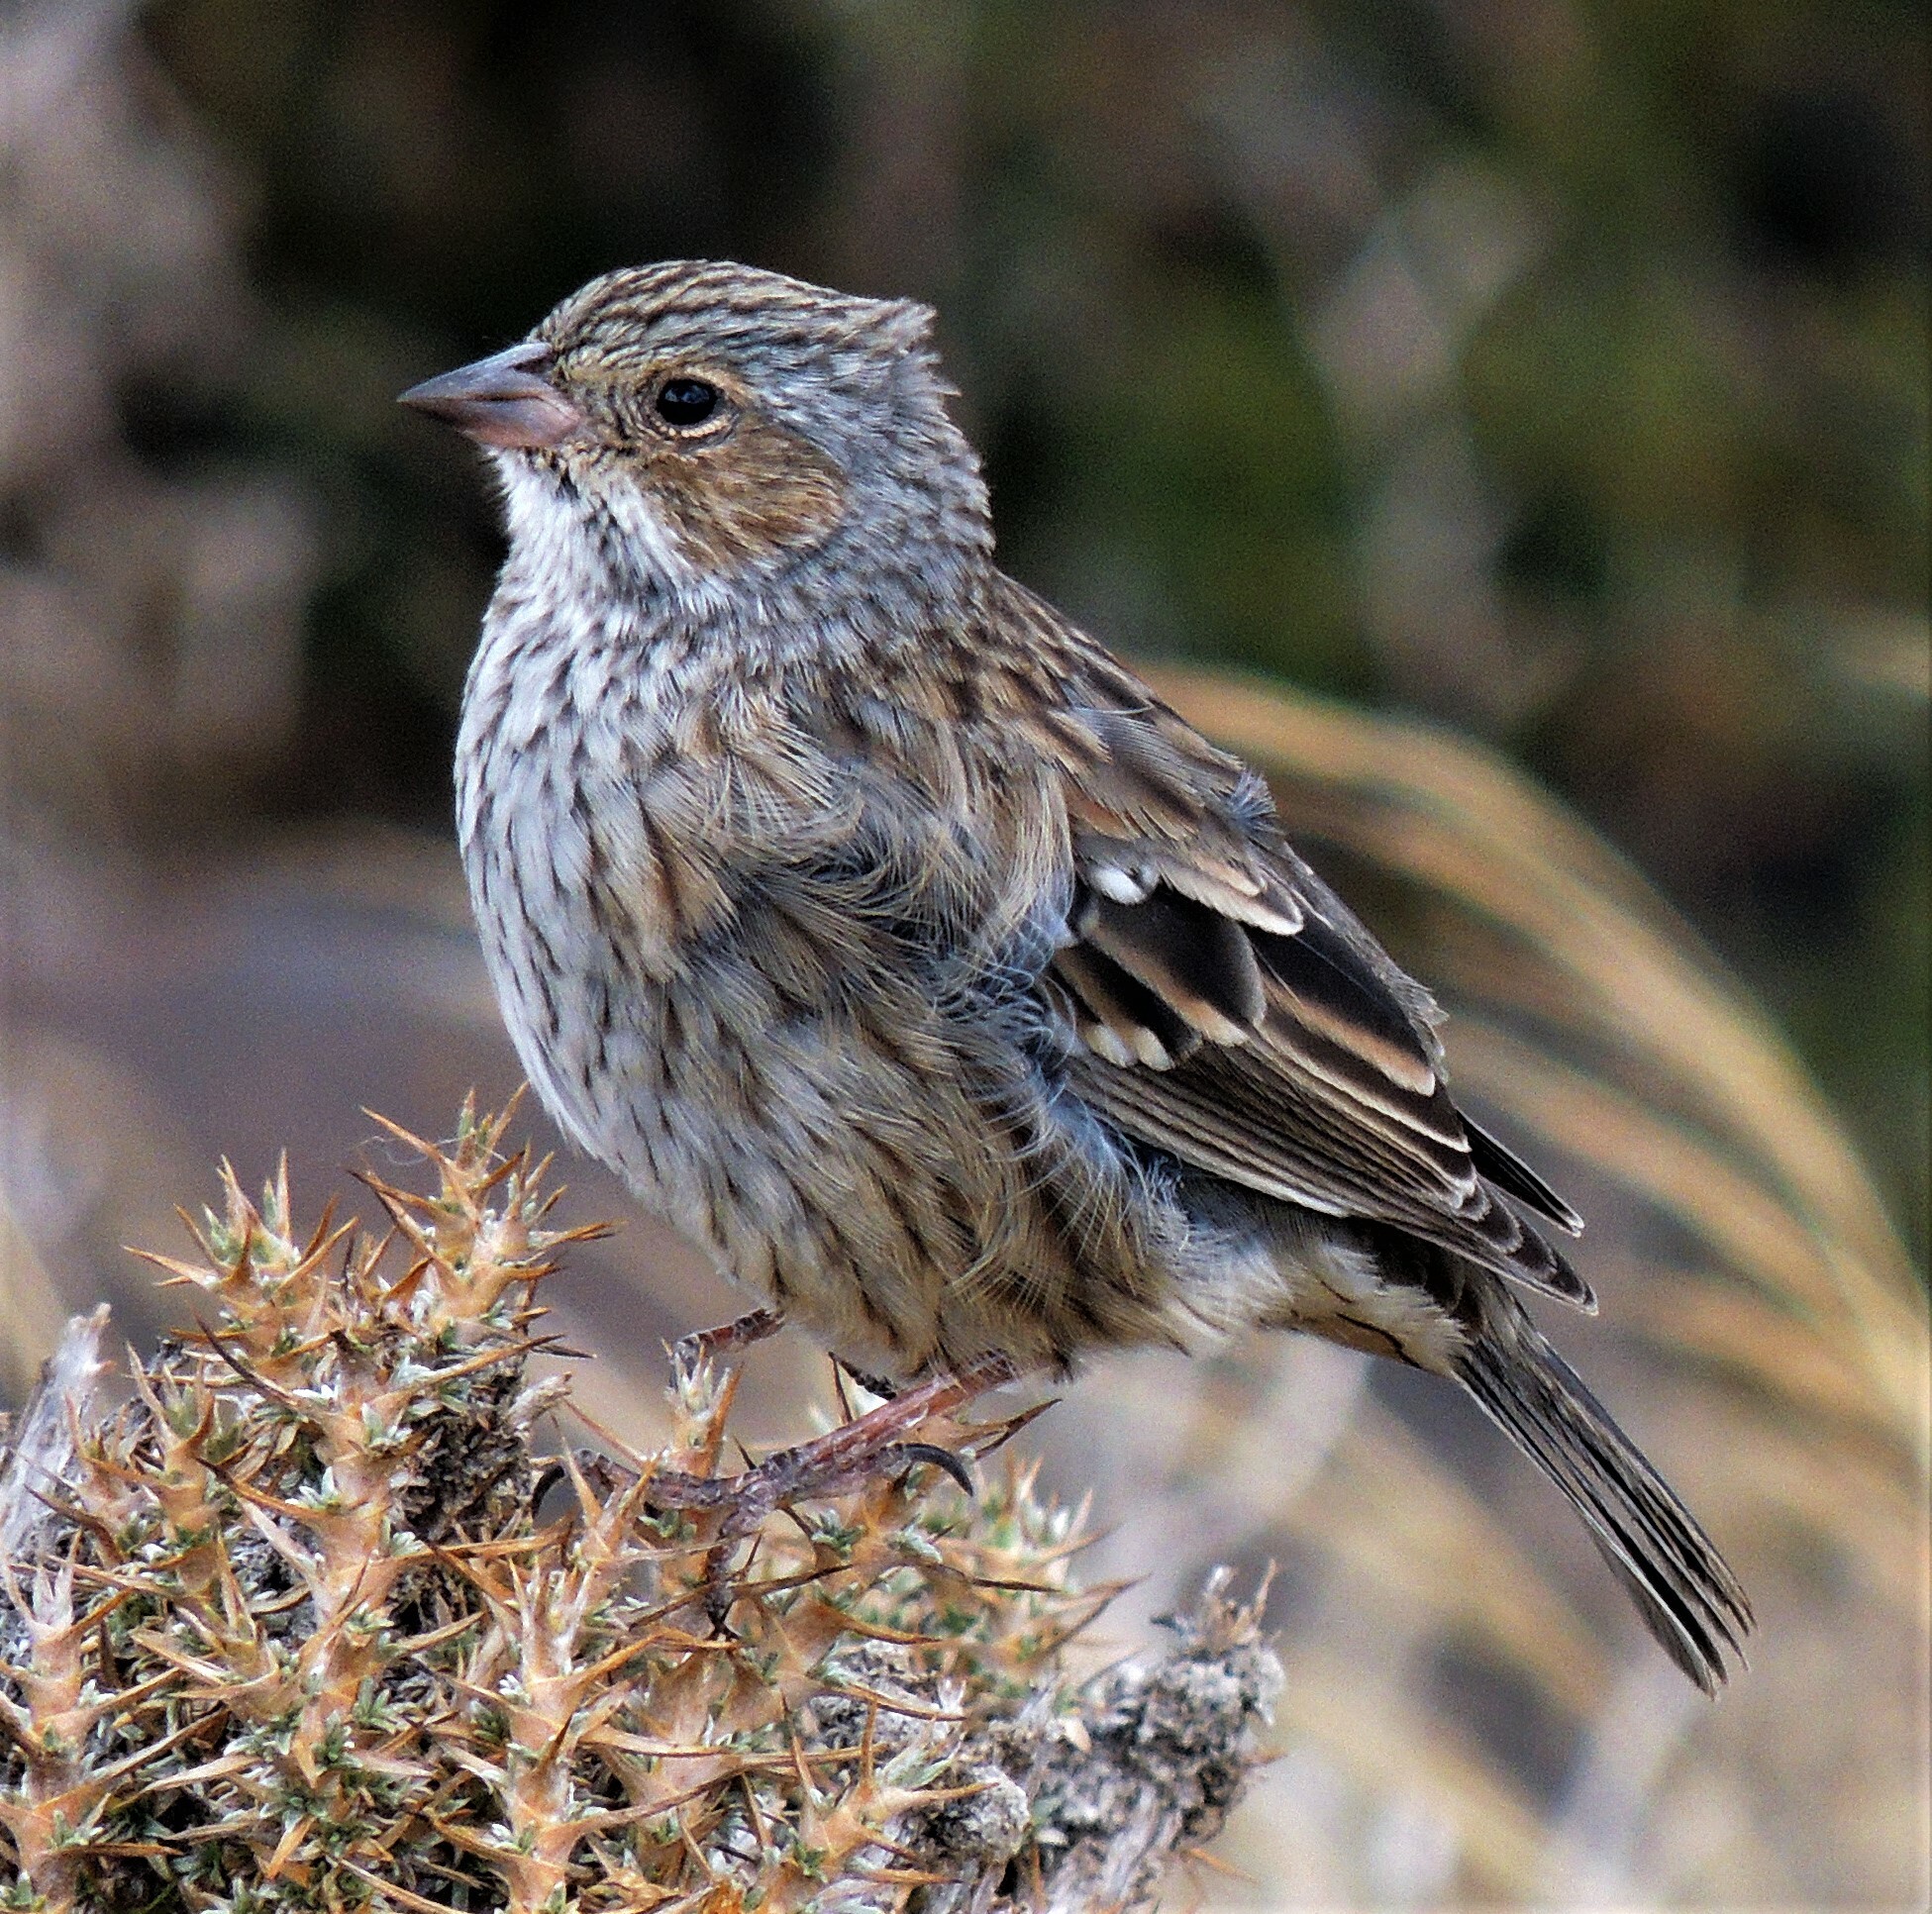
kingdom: Animalia
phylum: Chordata
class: Aves
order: Passeriformes
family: Thraupidae
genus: Rhopospina
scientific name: Rhopospina fruticeti
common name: Mourning sierra finch
